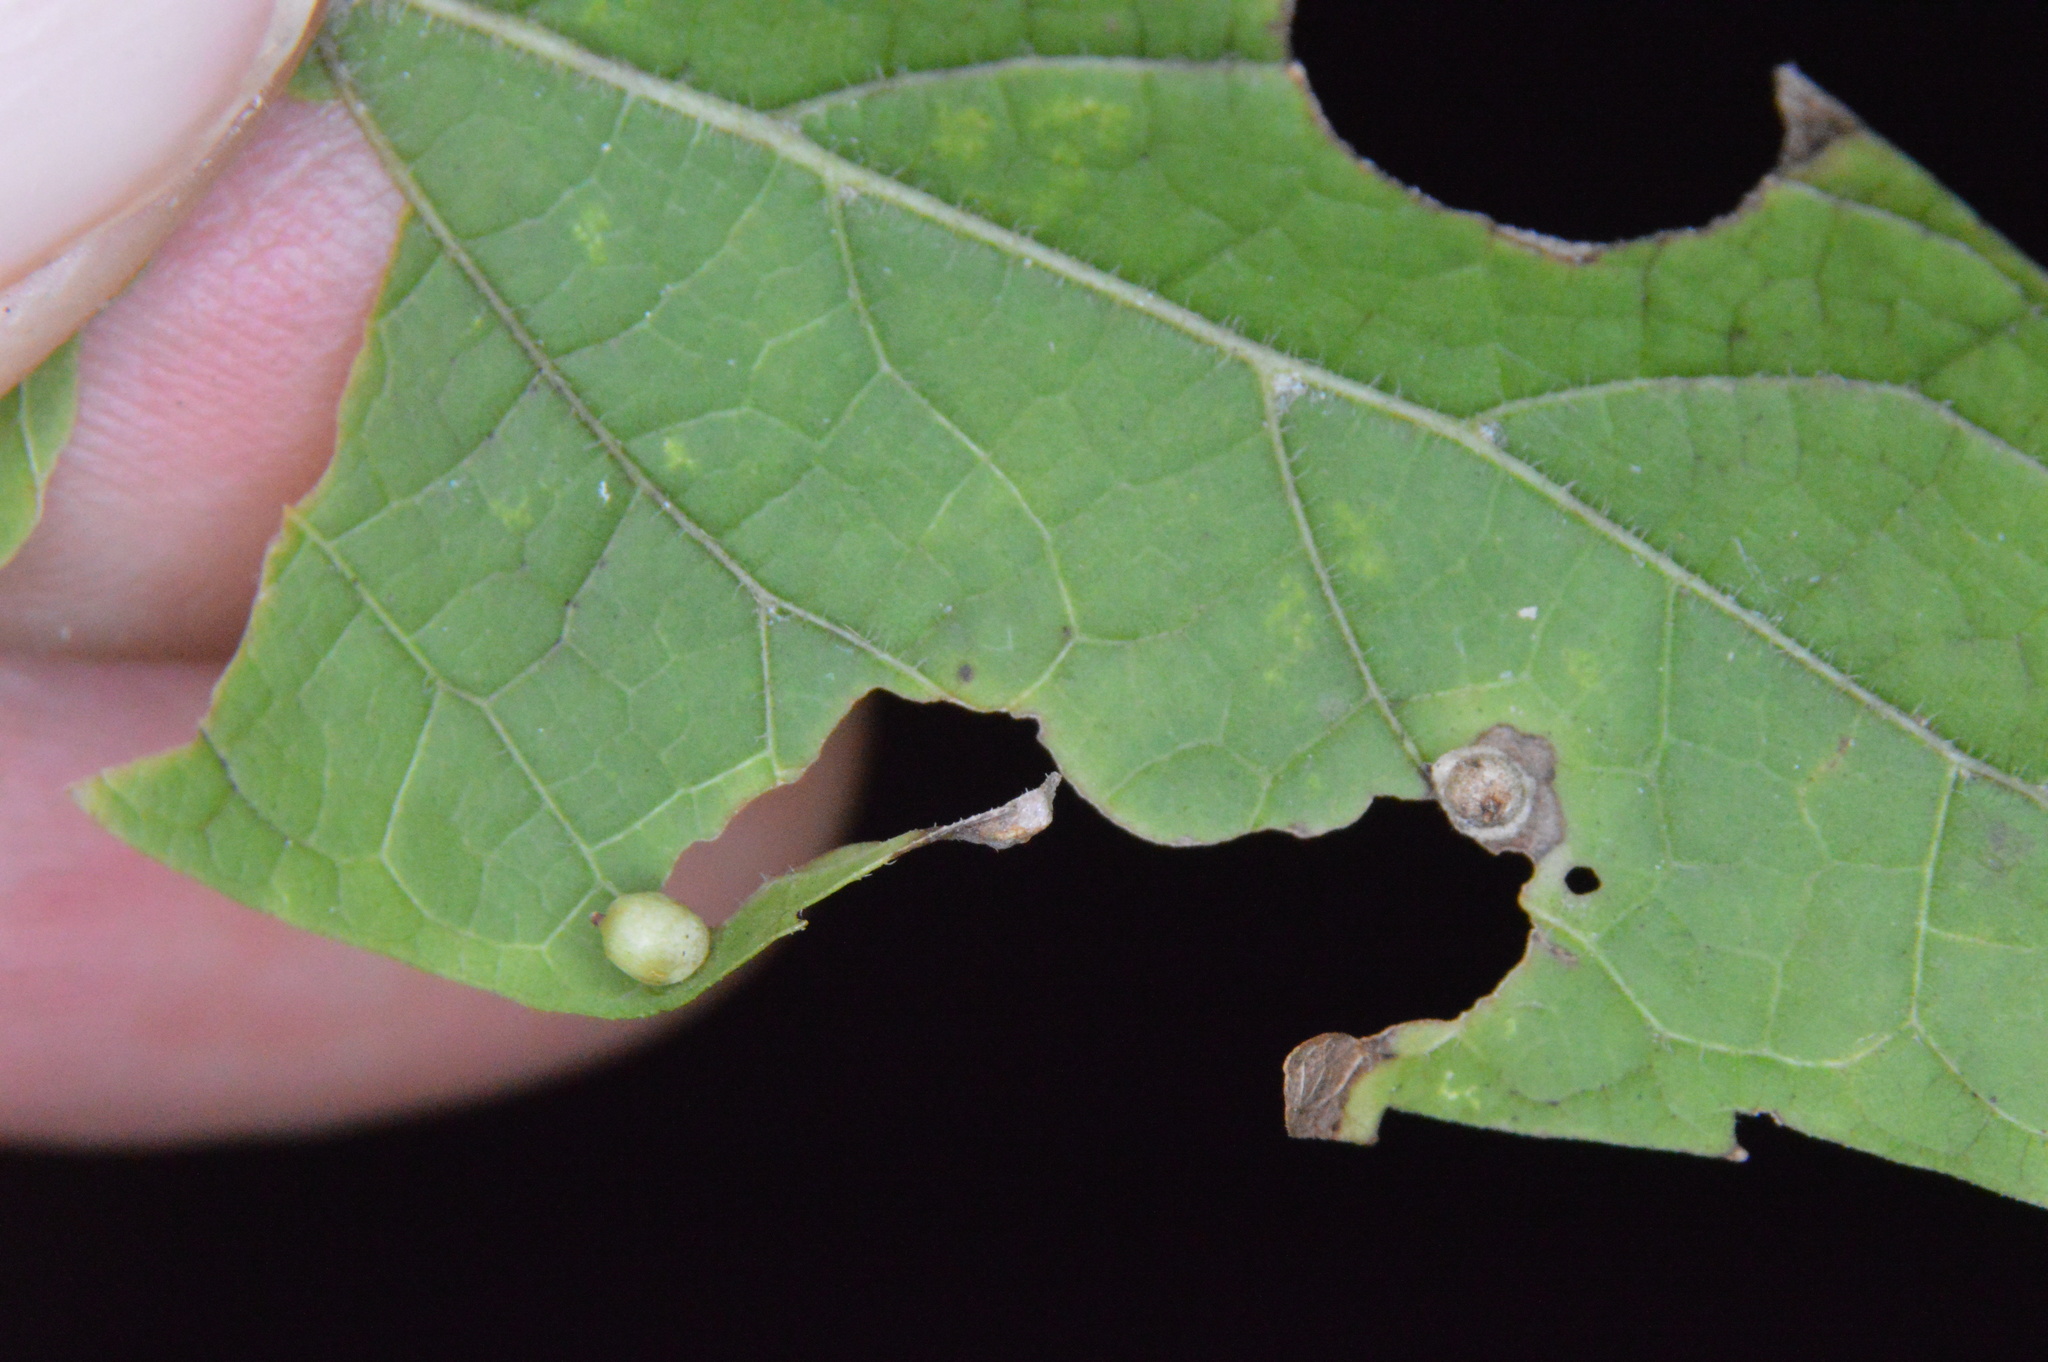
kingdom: Animalia
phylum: Arthropoda
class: Insecta
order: Diptera
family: Cecidomyiidae
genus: Celticecis
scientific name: Celticecis globosa
